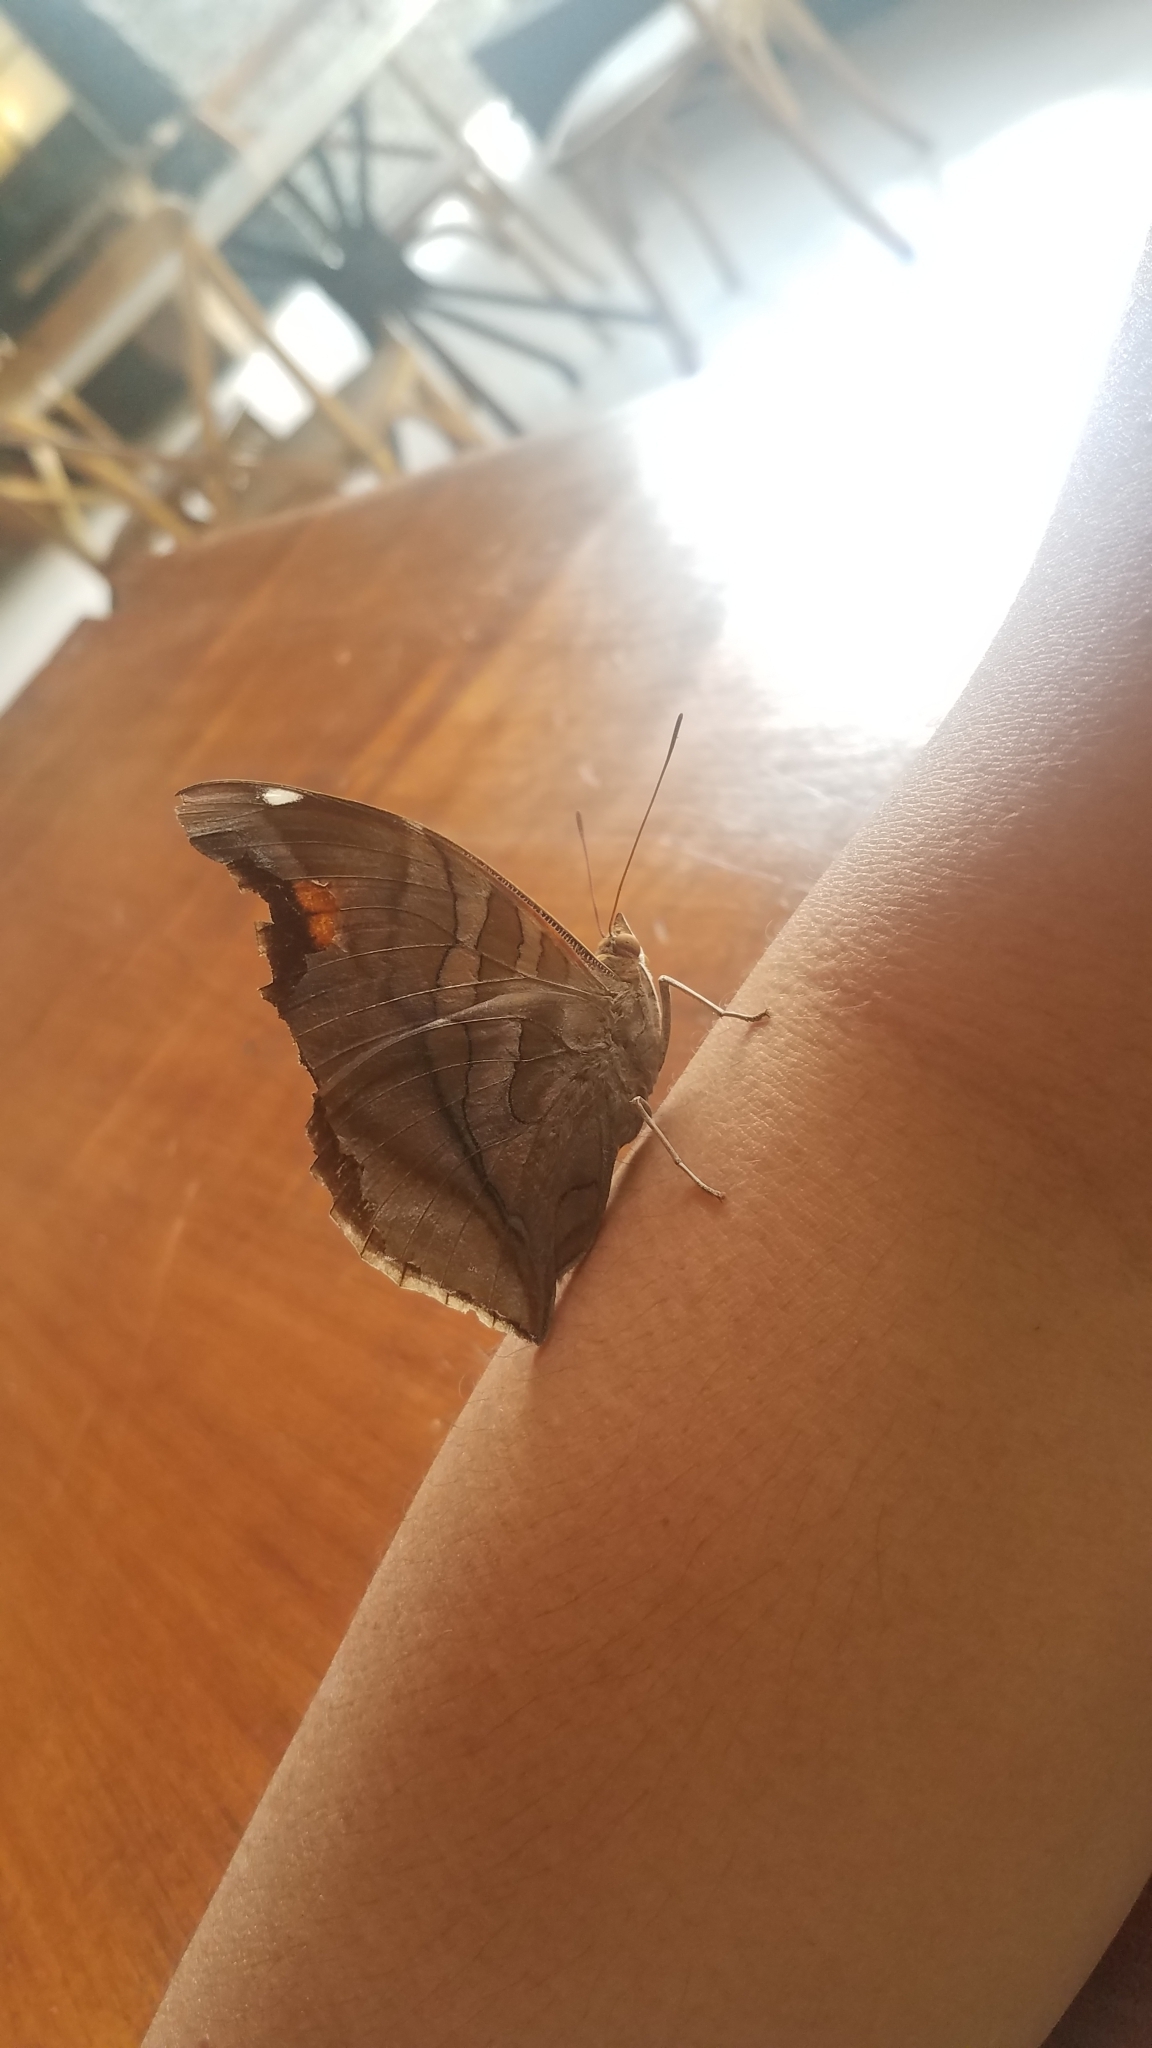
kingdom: Animalia
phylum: Arthropoda
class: Insecta
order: Lepidoptera
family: Nymphalidae
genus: Historis
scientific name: Historis odius
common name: Orion cecropian
